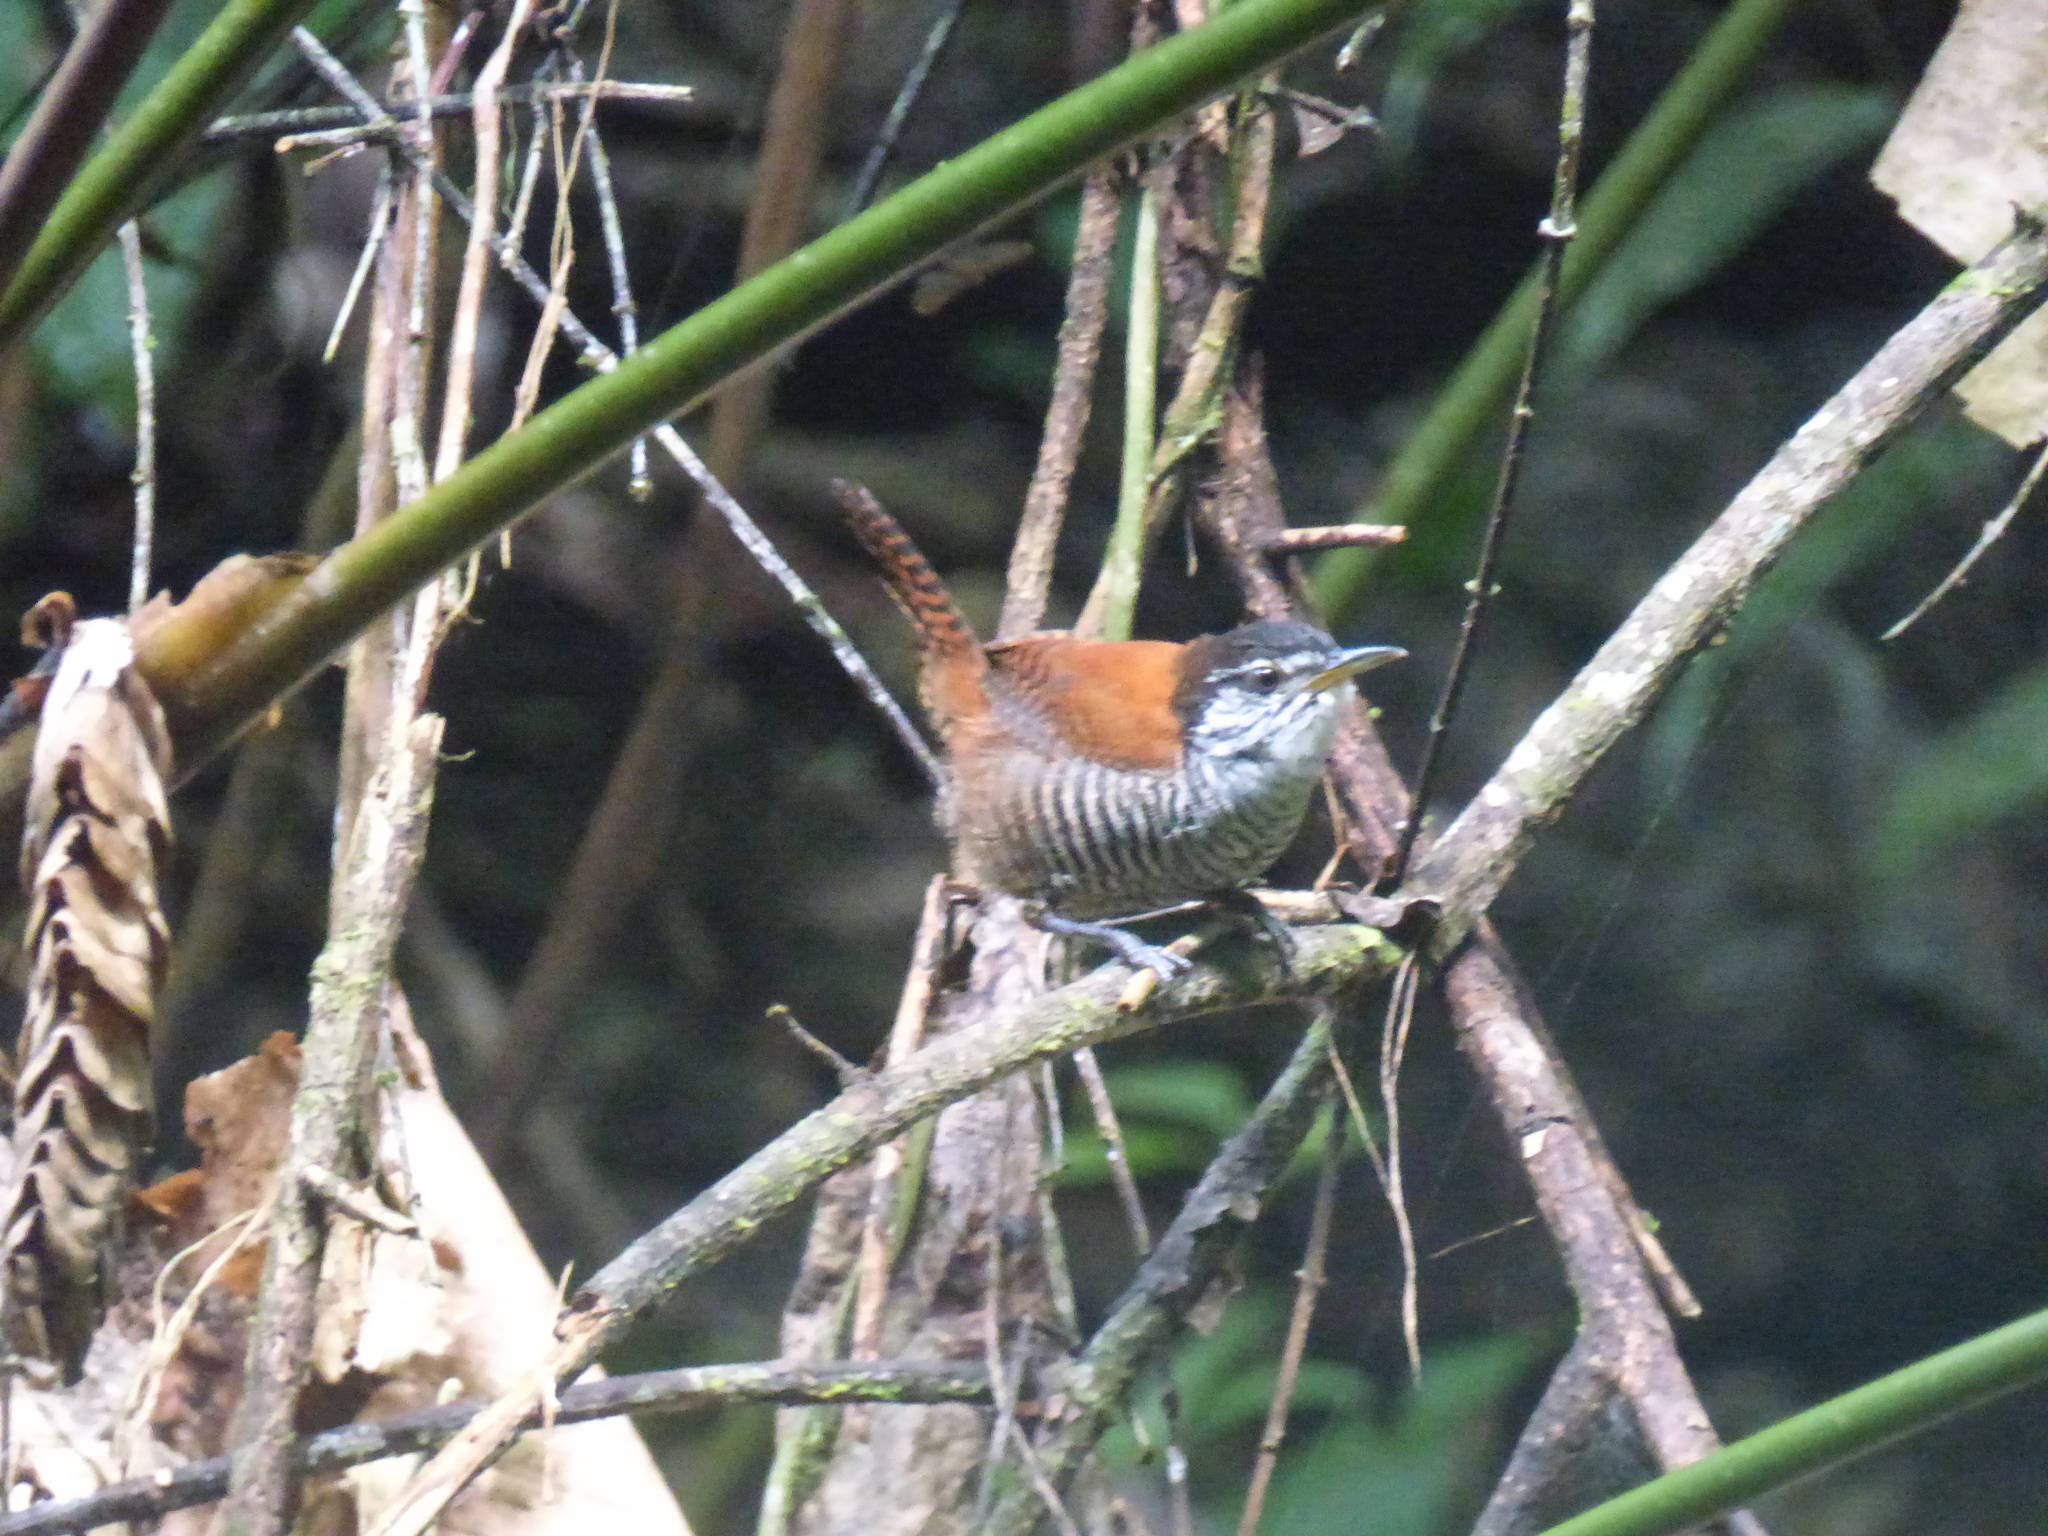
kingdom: Animalia
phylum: Chordata
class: Aves
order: Passeriformes
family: Troglodytidae
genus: Cantorchilus
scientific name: Cantorchilus nigricapillus
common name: Bay wren
